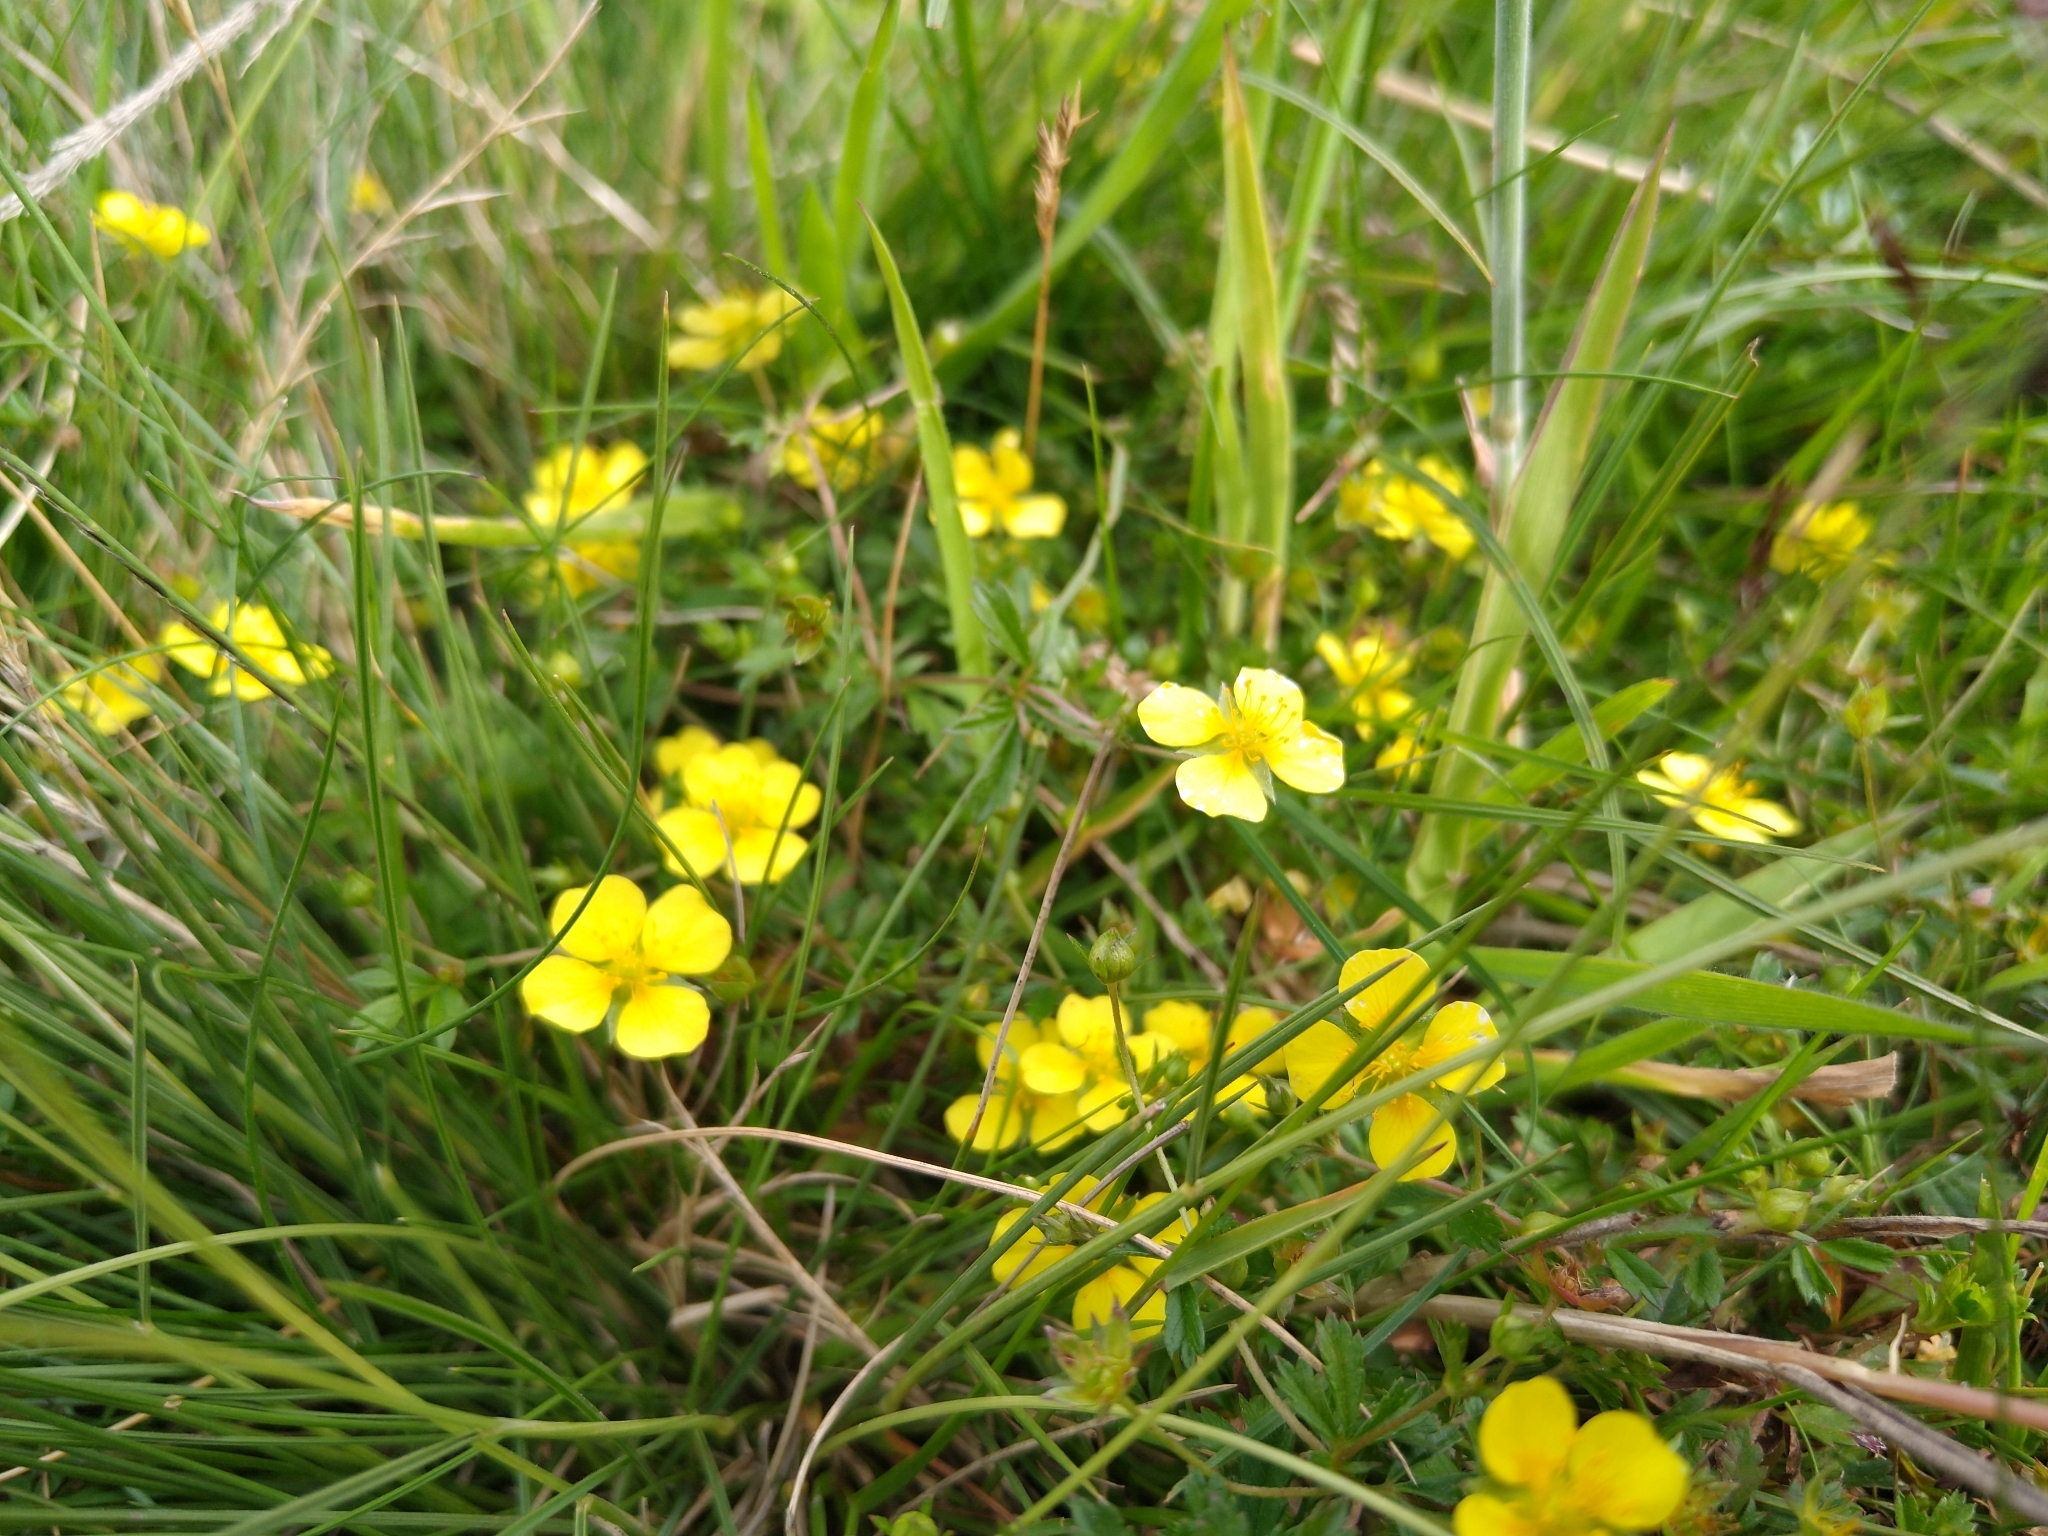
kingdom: Plantae
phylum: Tracheophyta
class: Magnoliopsida
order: Rosales
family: Rosaceae
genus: Potentilla
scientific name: Potentilla erecta
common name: Tormentil
